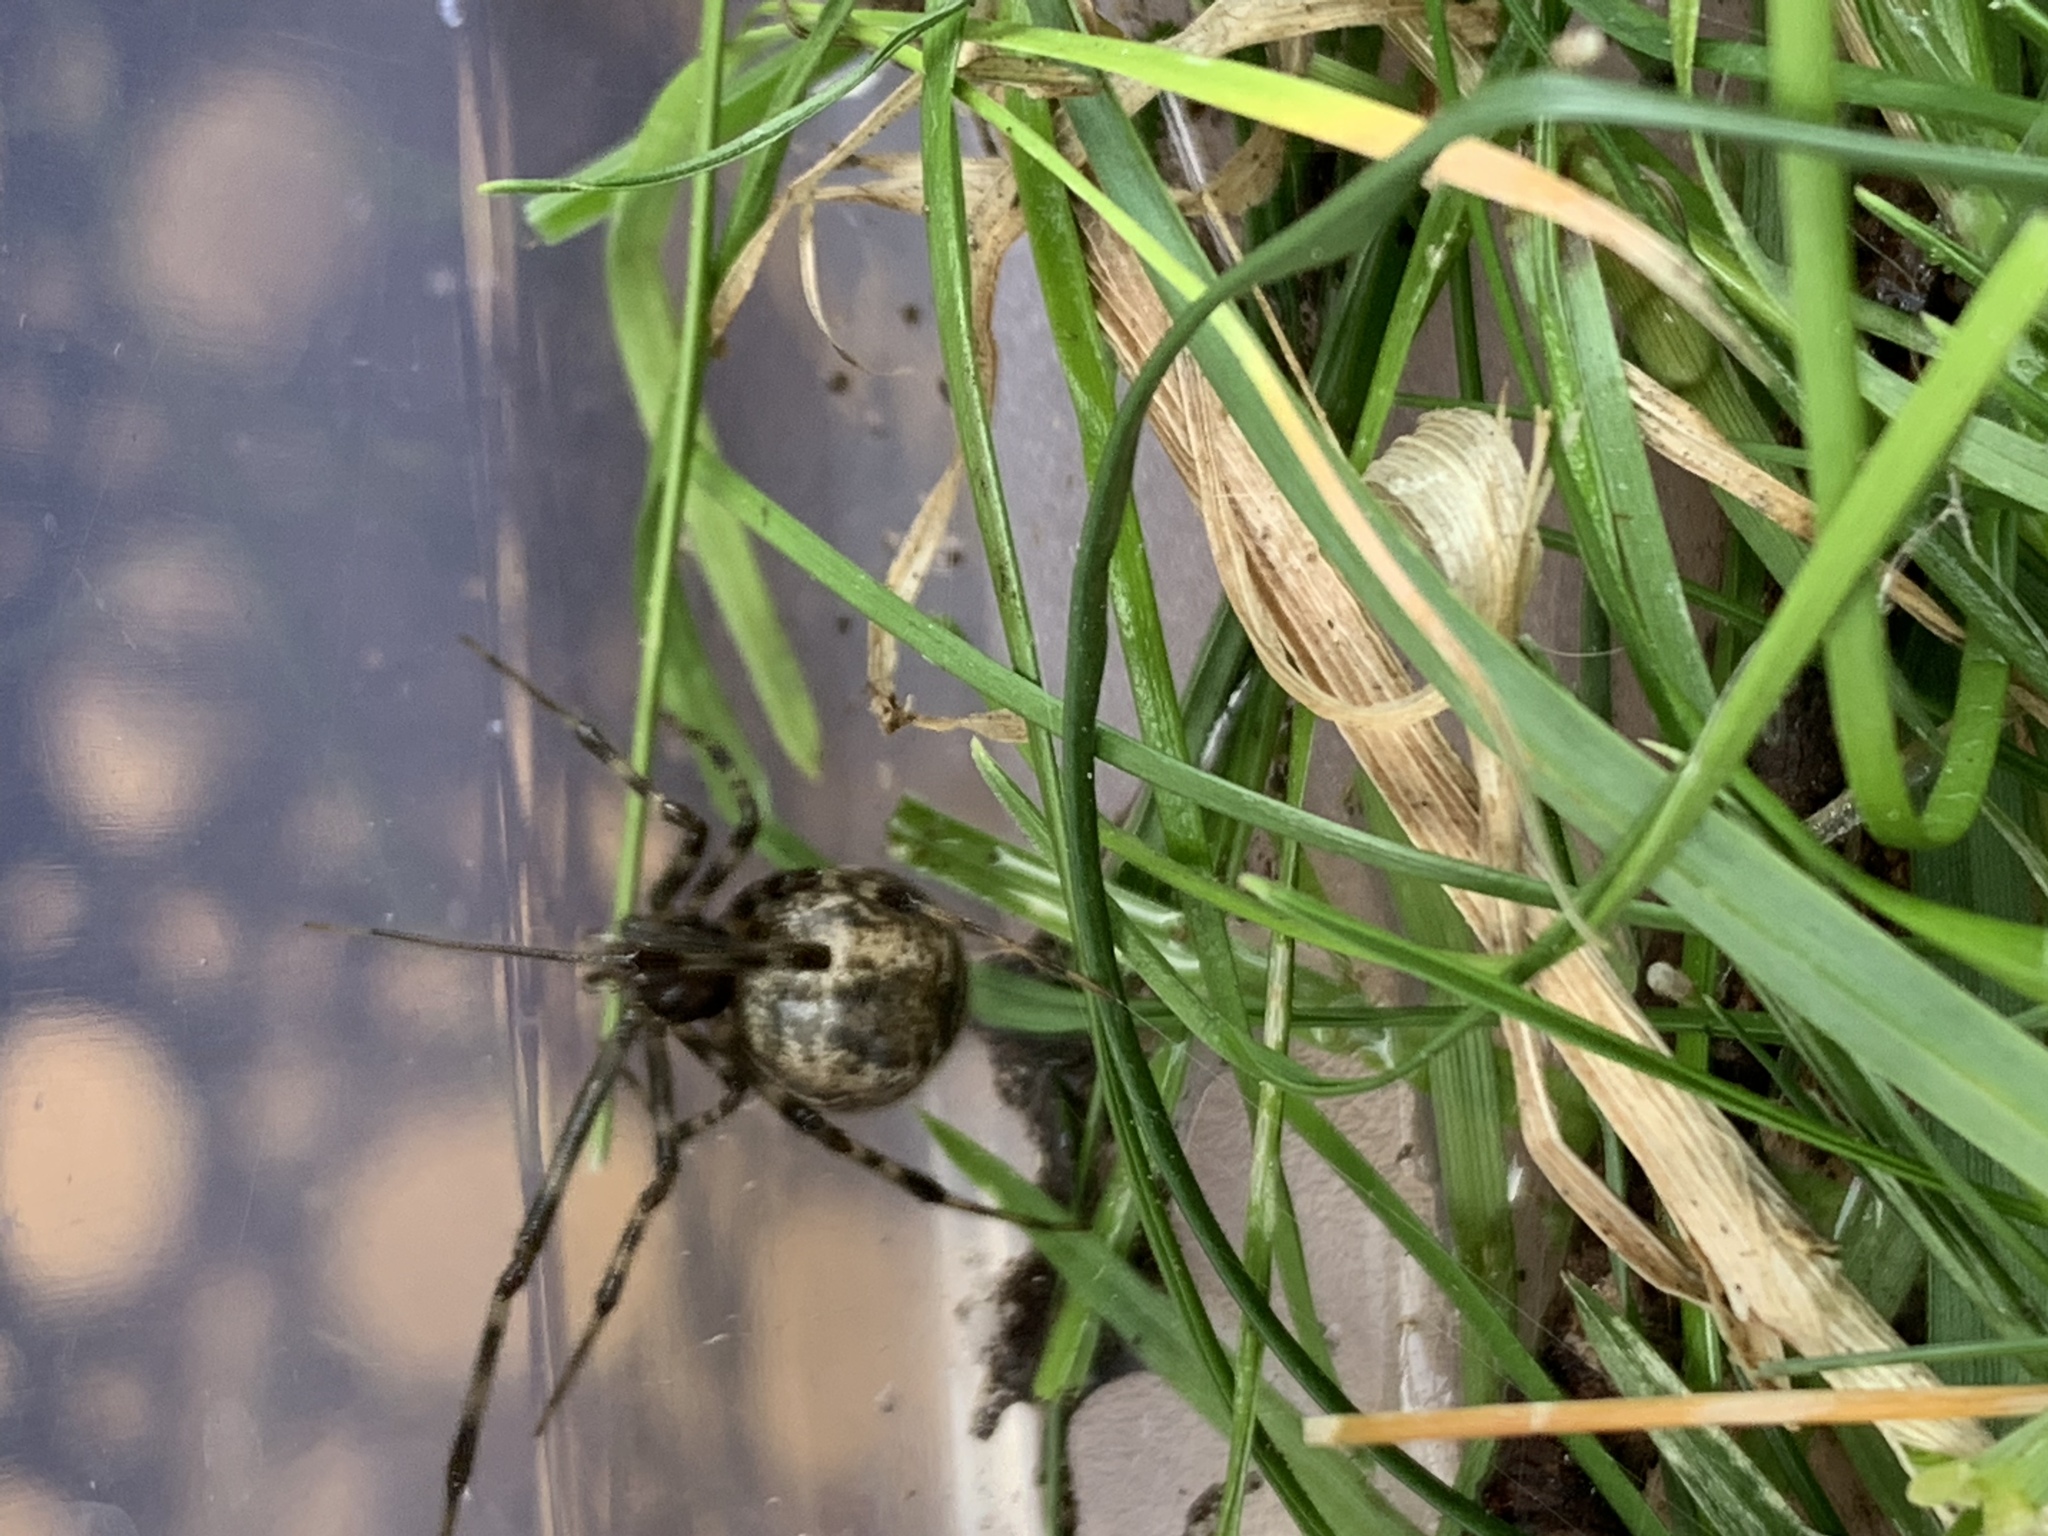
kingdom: Animalia
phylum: Arthropoda
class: Arachnida
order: Araneae
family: Theridiidae
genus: Parasteatoda
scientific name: Parasteatoda tepidariorum
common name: Common house spider
